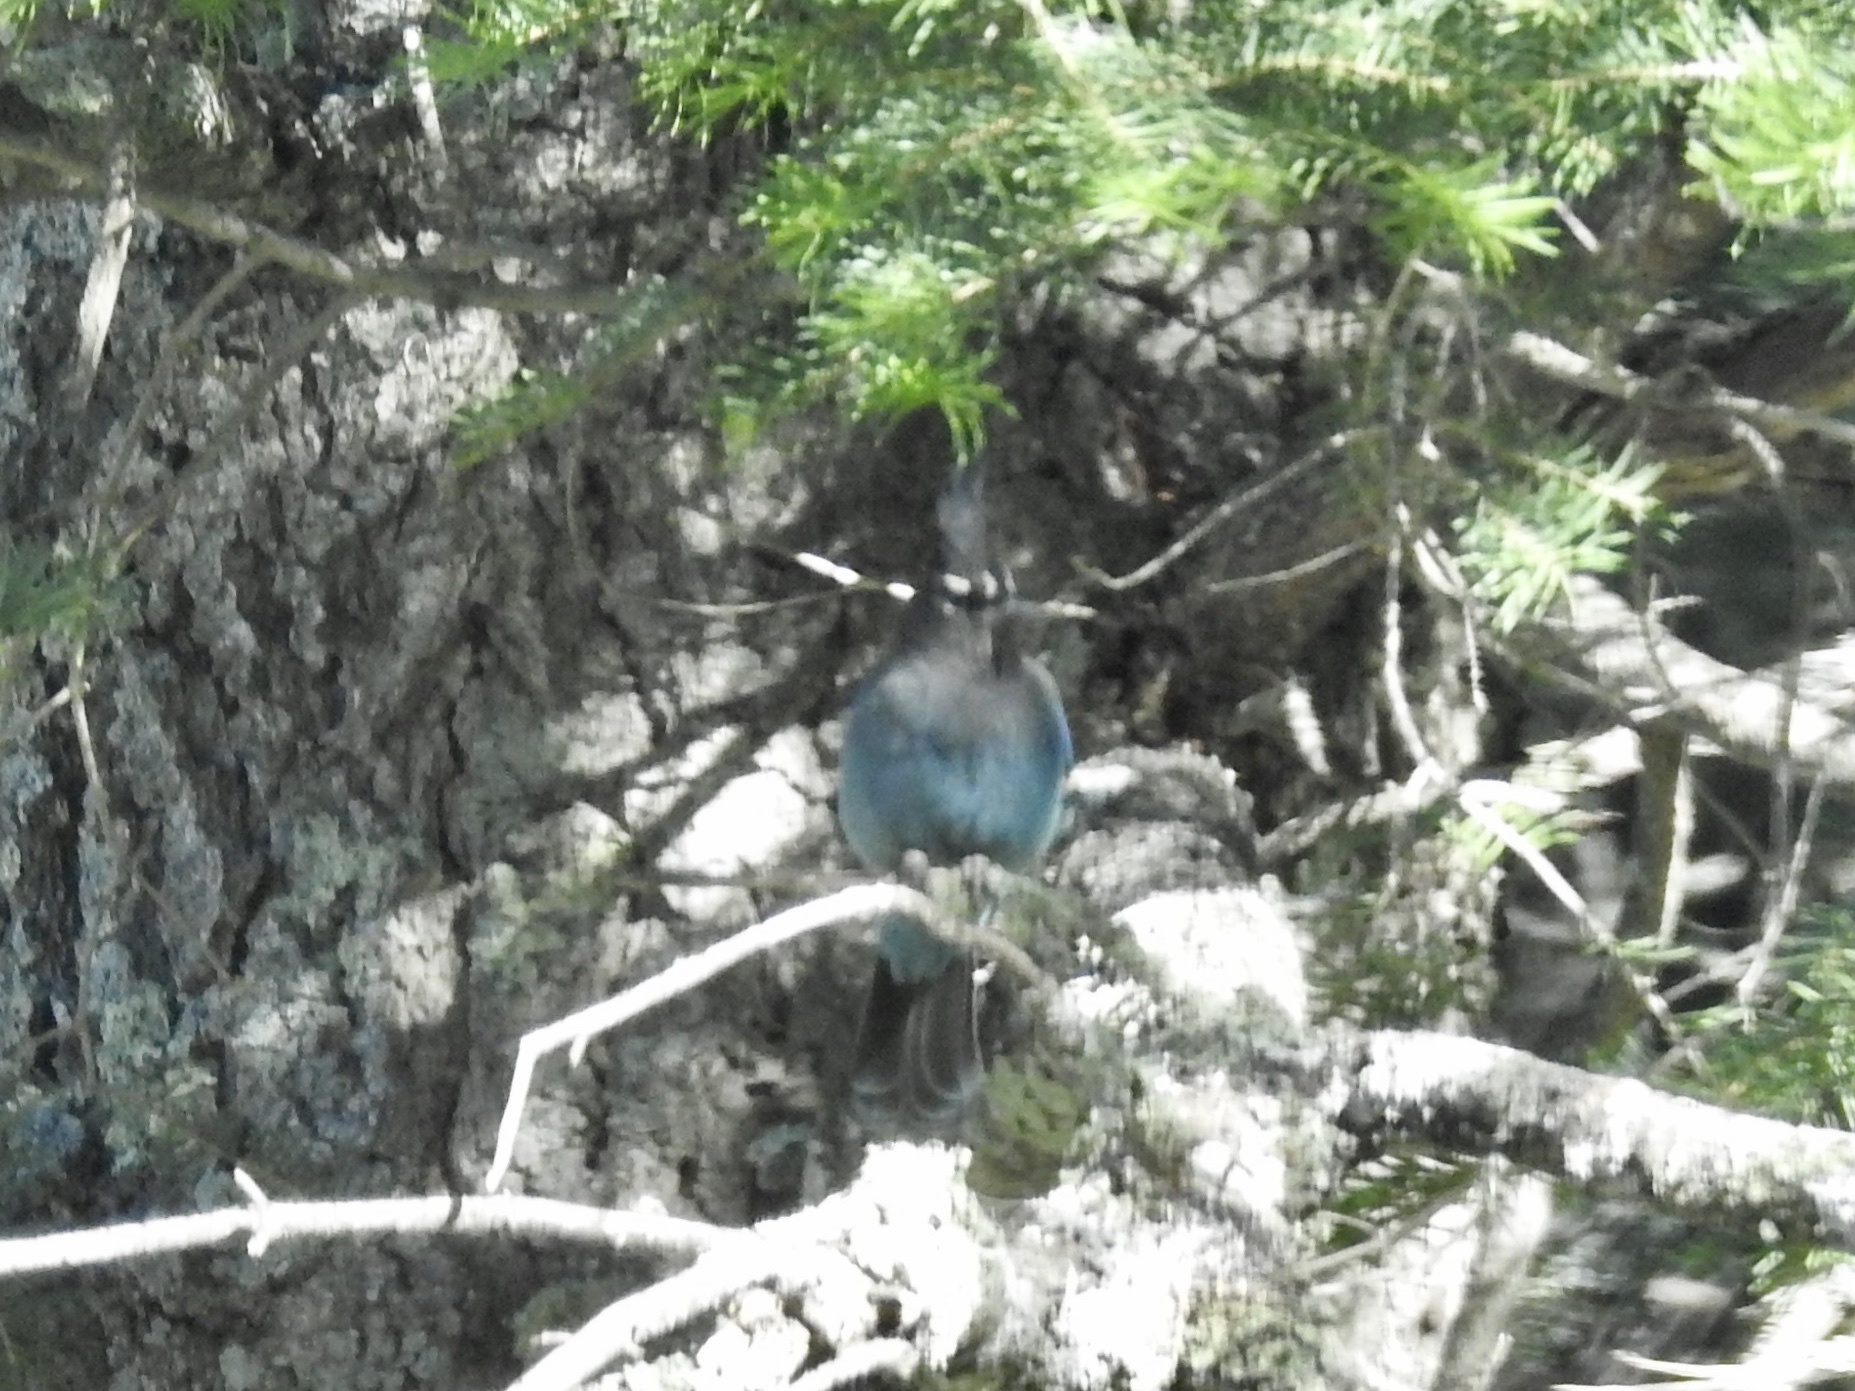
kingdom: Animalia
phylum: Chordata
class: Aves
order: Passeriformes
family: Corvidae
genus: Cyanocitta
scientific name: Cyanocitta stelleri
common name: Steller's jay
